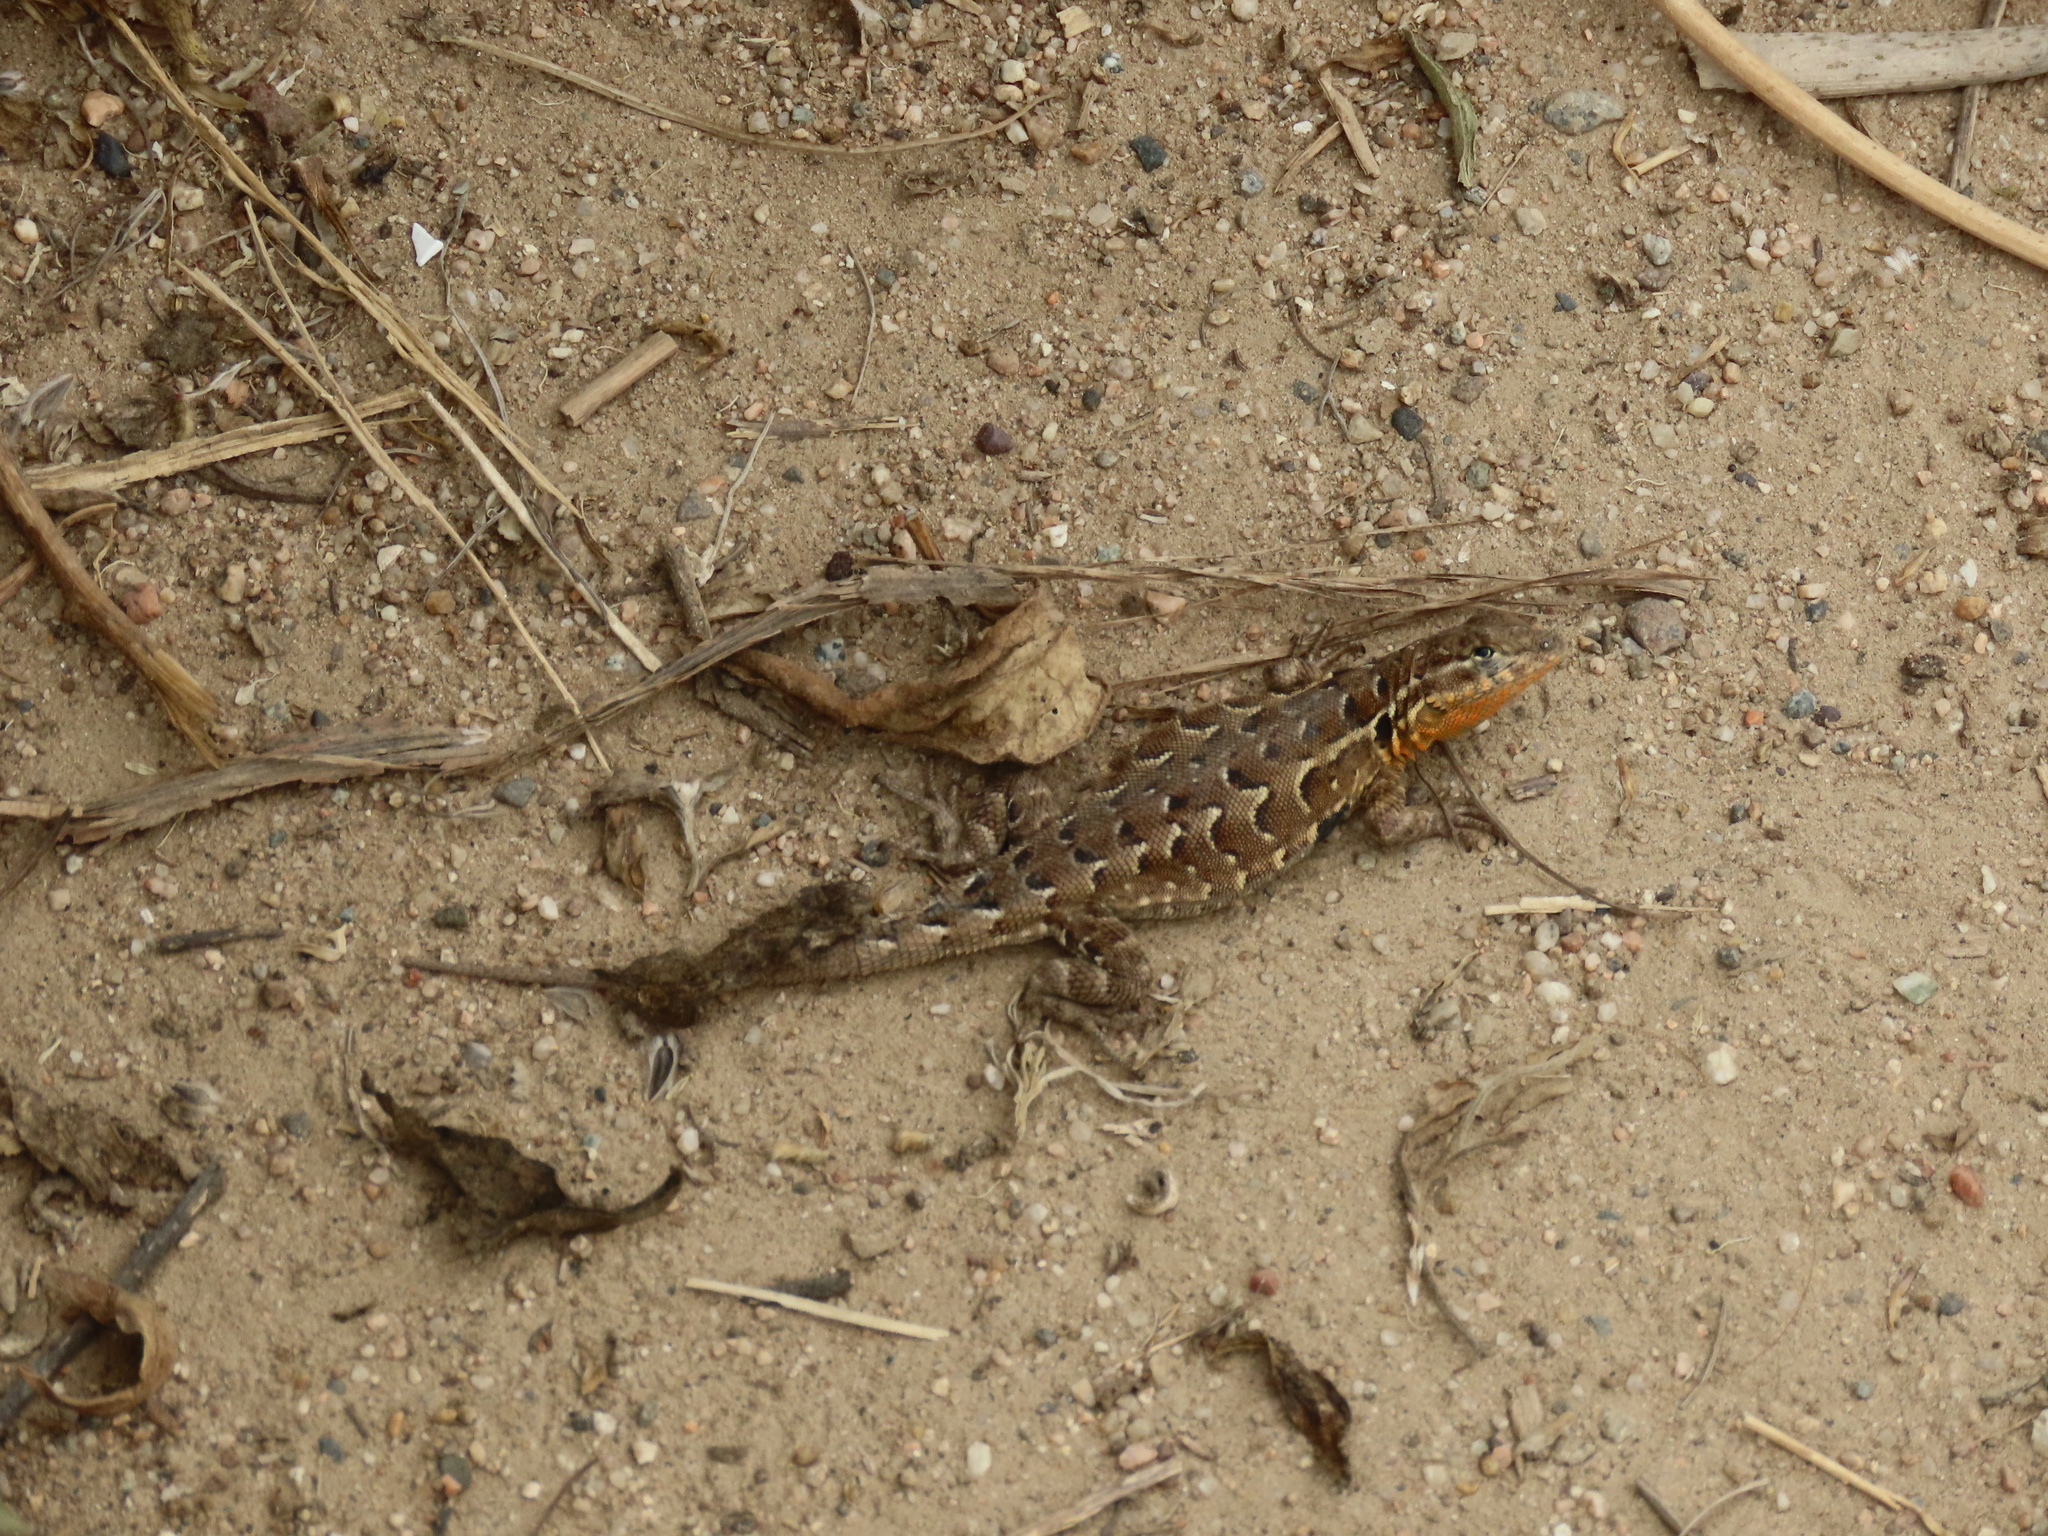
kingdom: Animalia
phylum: Chordata
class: Squamata
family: Phrynosomatidae
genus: Uta
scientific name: Uta stansburiana
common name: Side-blotched lizard
